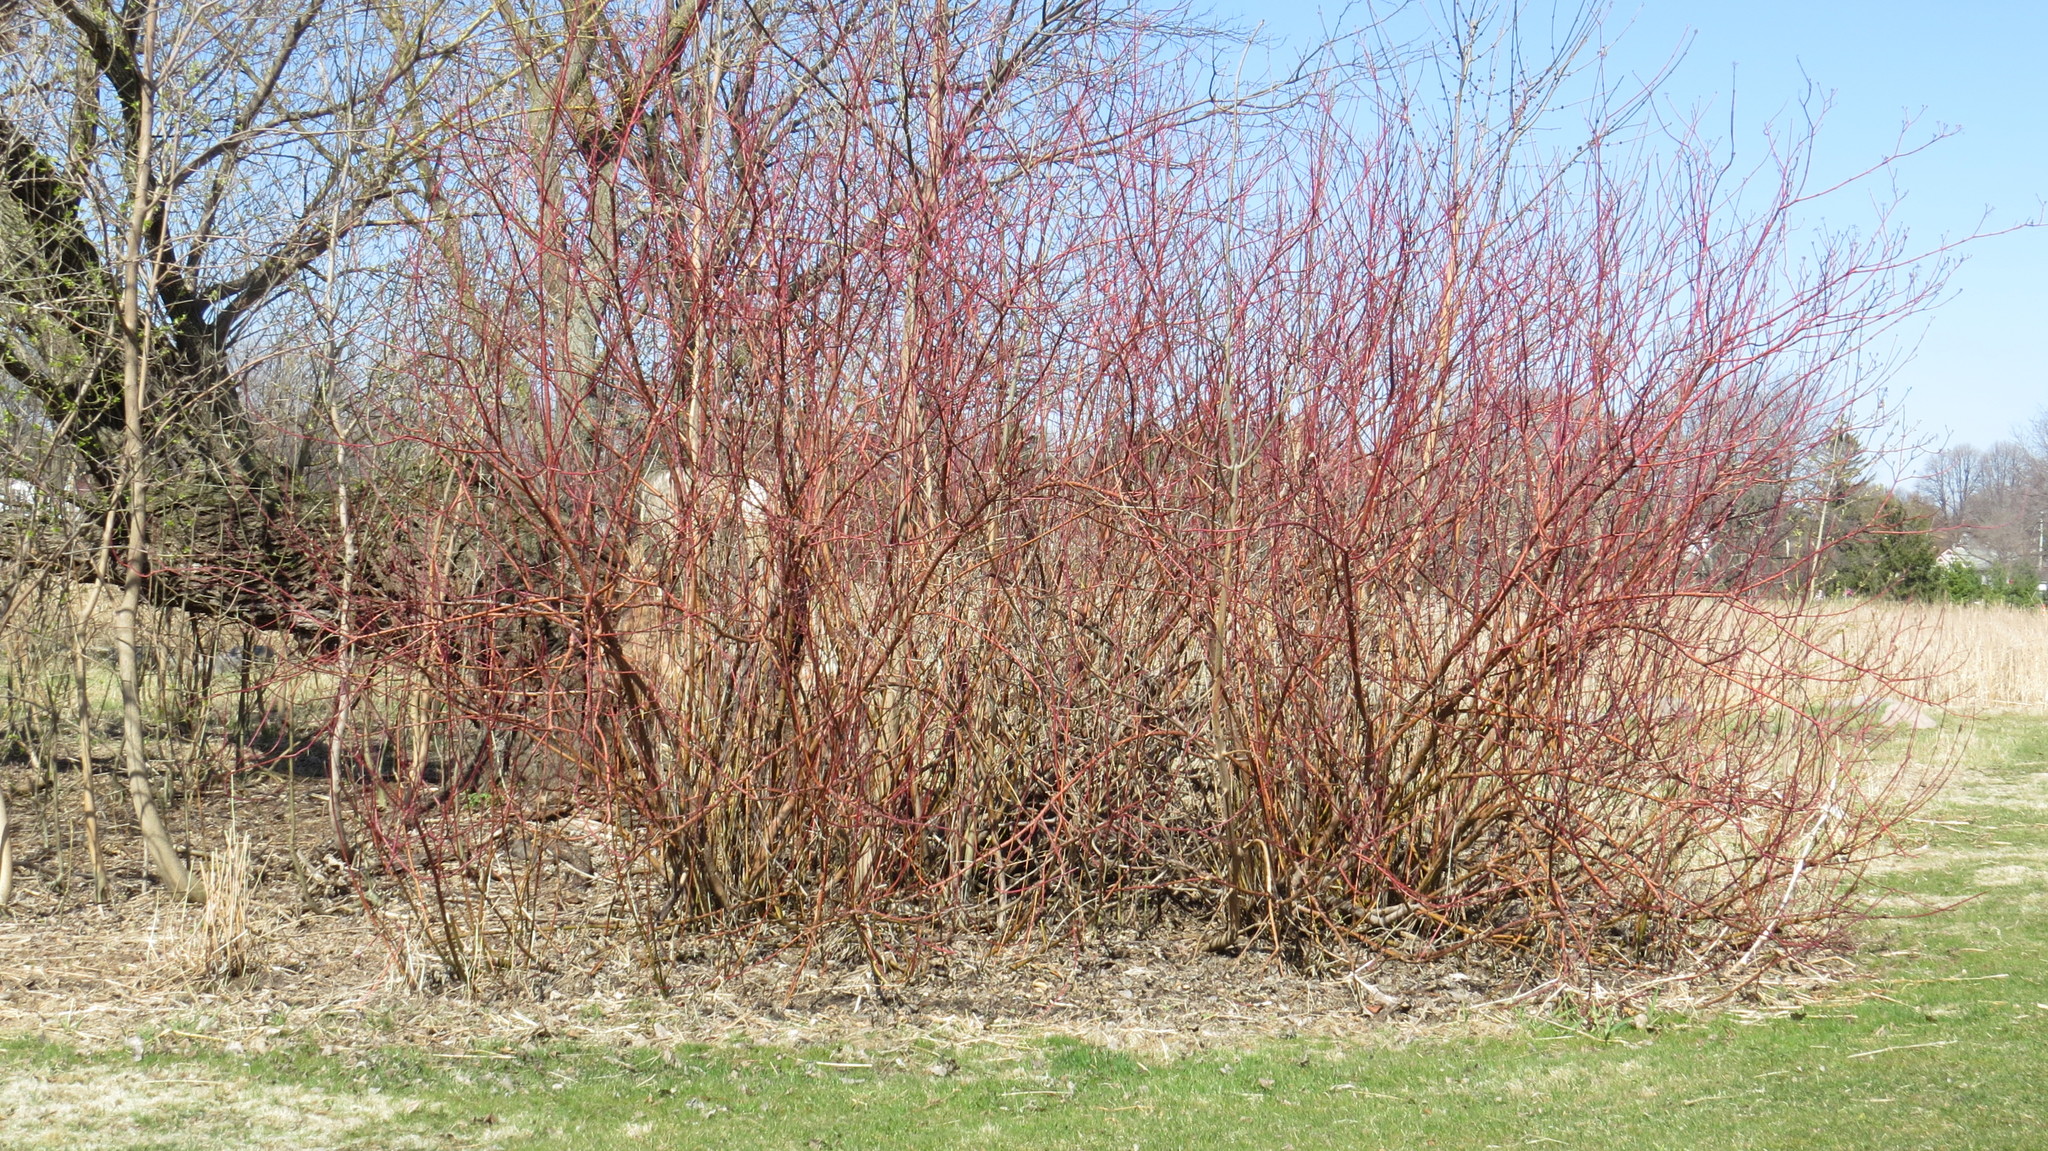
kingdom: Plantae
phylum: Tracheophyta
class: Magnoliopsida
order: Cornales
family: Cornaceae
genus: Cornus
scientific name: Cornus sericea
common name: Red-osier dogwood
